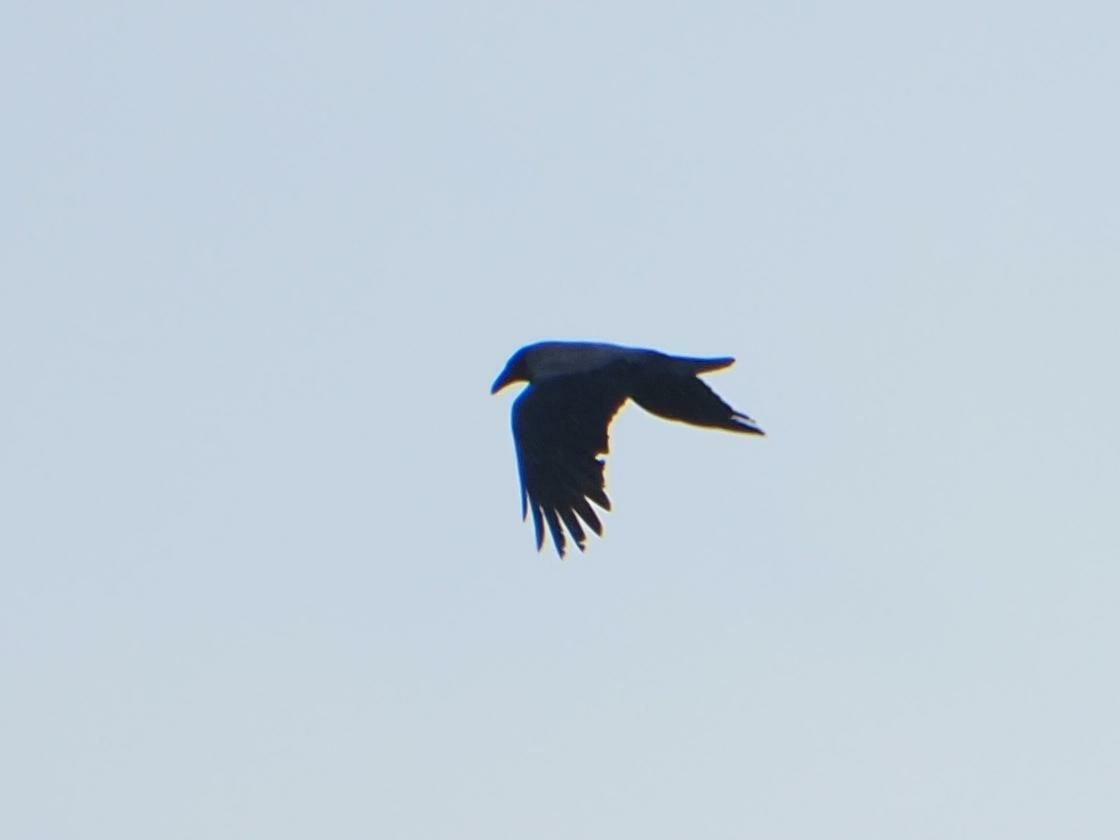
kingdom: Animalia
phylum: Chordata
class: Aves
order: Passeriformes
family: Corvidae
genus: Corvus
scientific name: Corvus cornix
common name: Hooded crow
